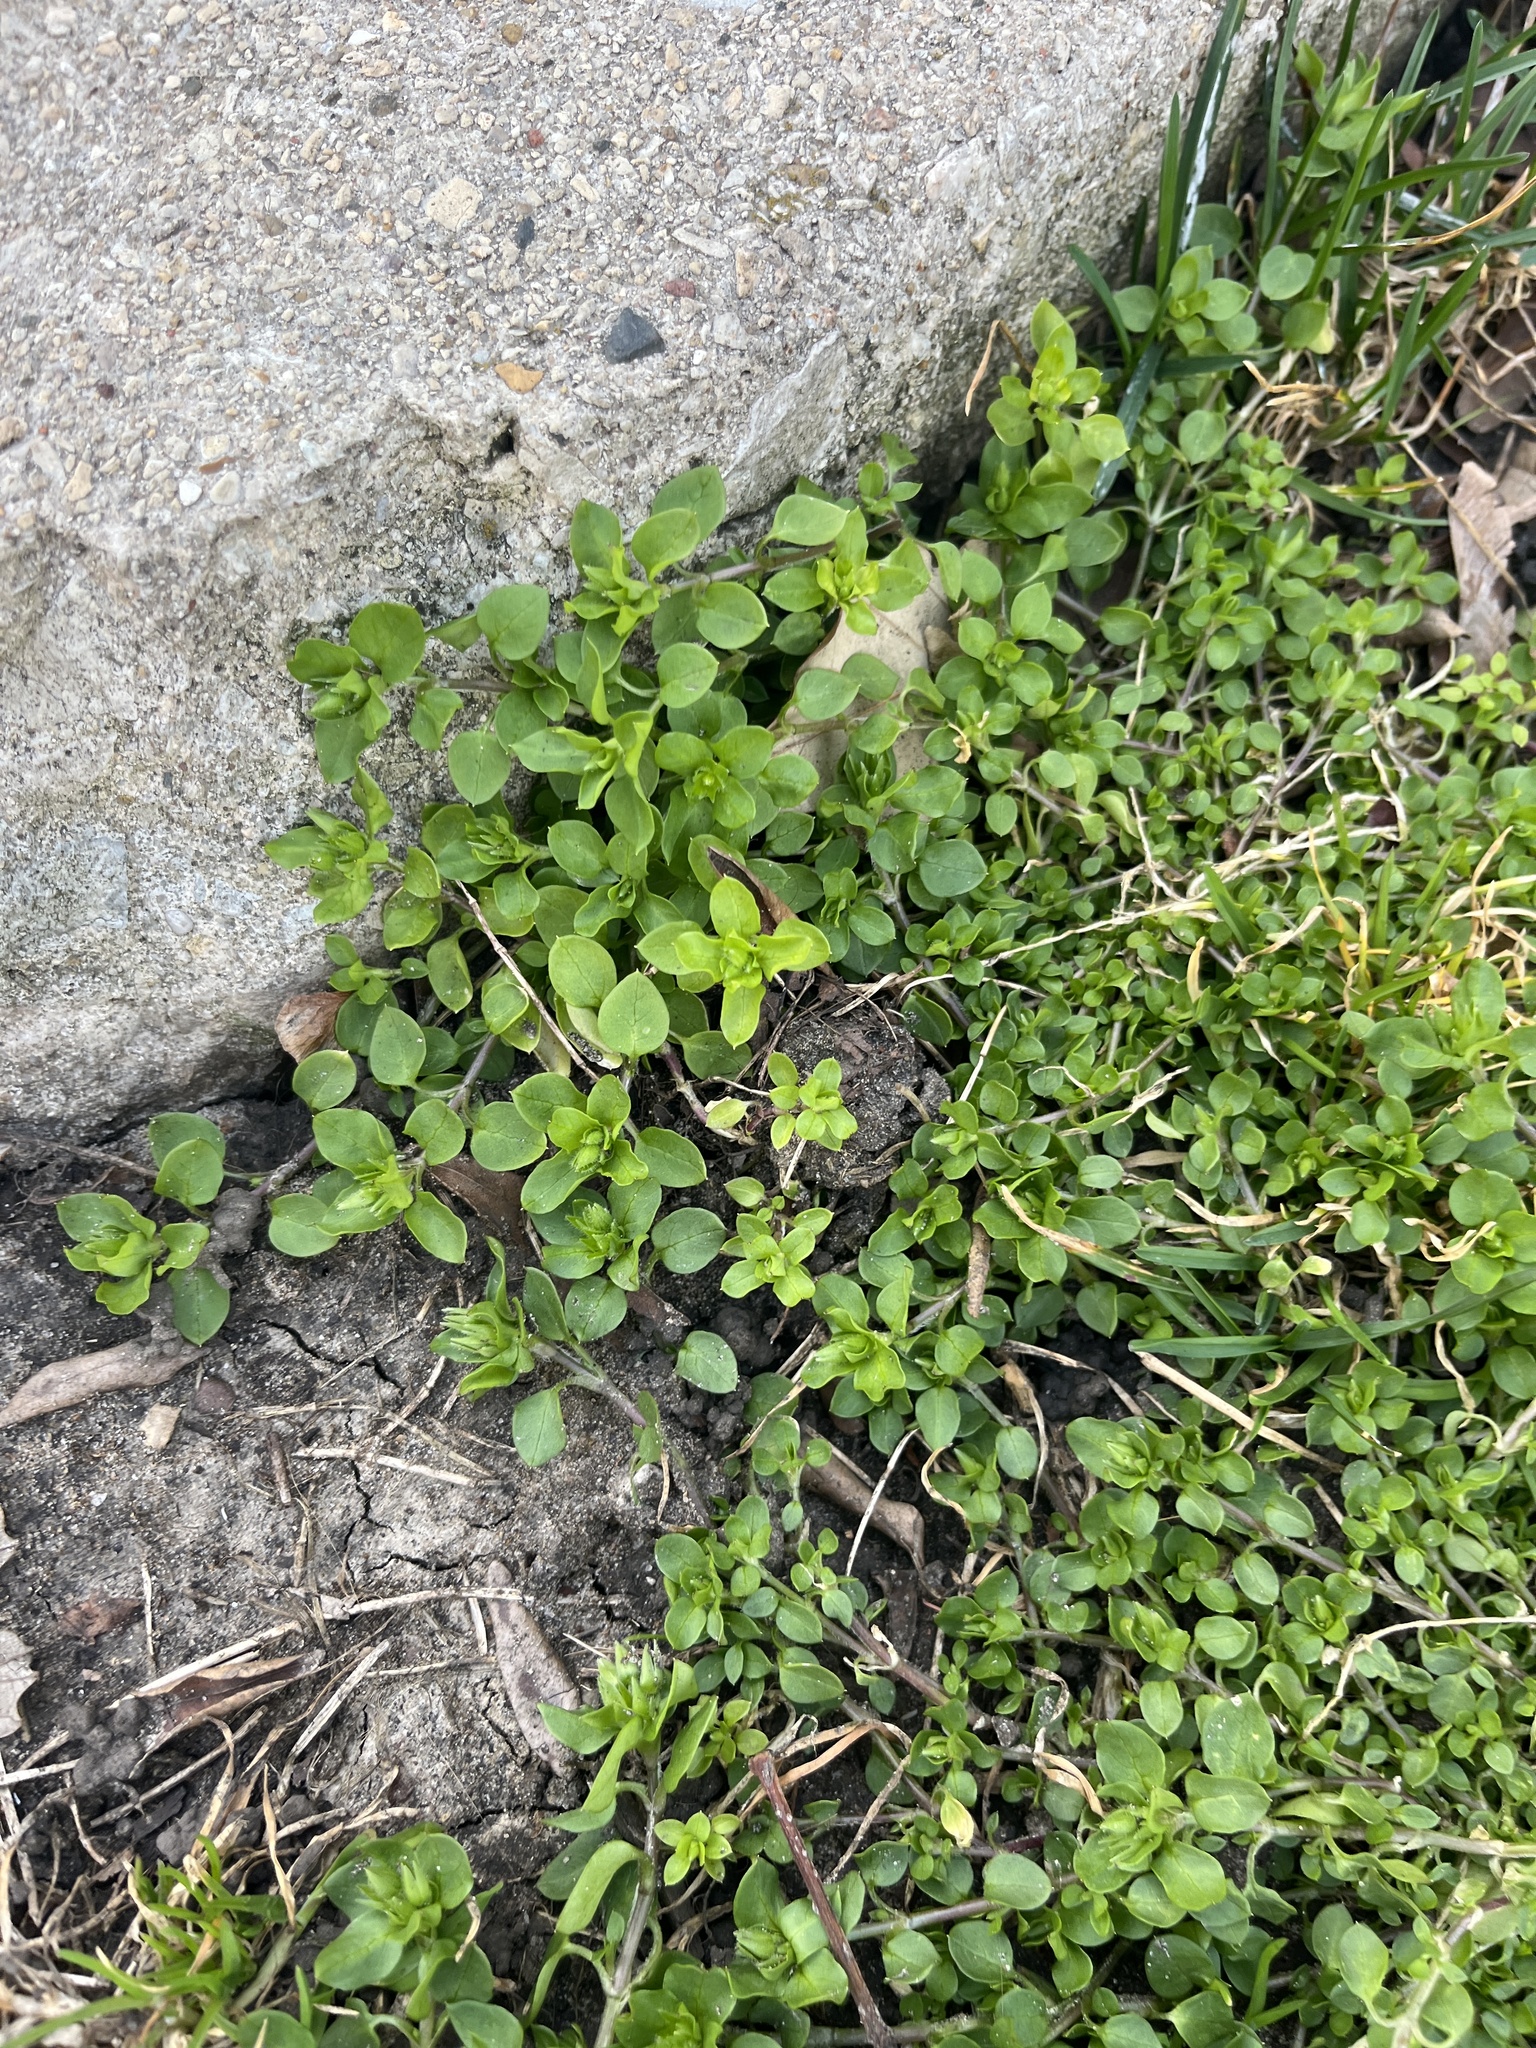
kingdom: Plantae
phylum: Tracheophyta
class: Magnoliopsida
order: Caryophyllales
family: Caryophyllaceae
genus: Stellaria
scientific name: Stellaria media
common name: Common chickweed
